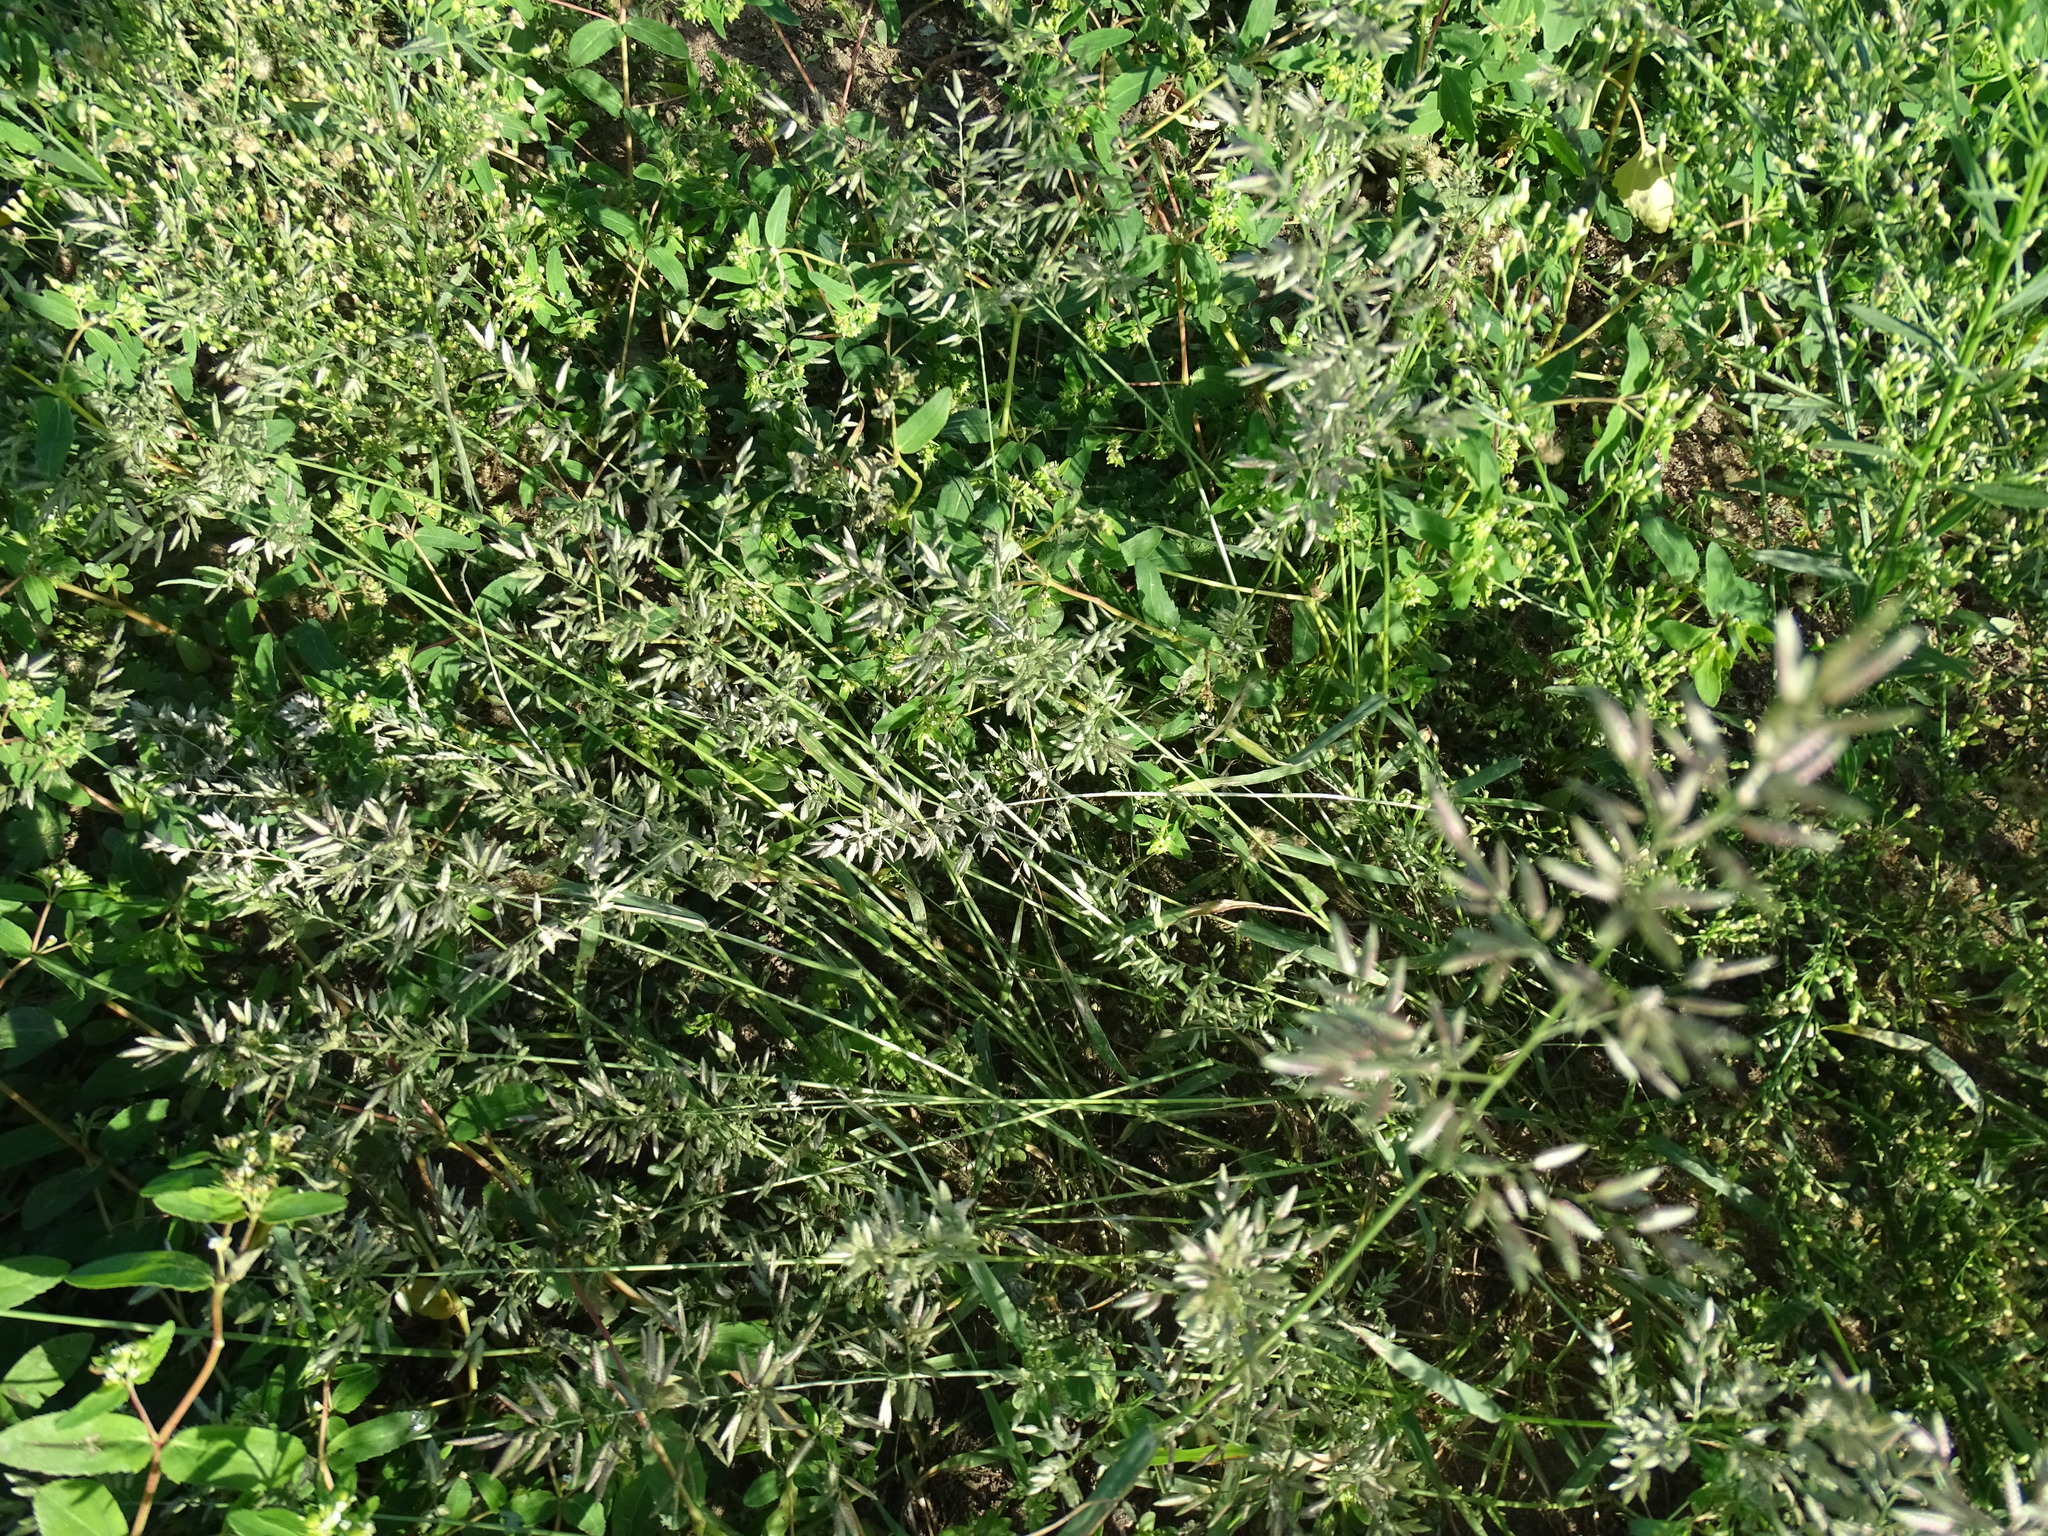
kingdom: Plantae
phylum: Tracheophyta
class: Liliopsida
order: Poales
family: Poaceae
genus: Eragrostis
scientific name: Eragrostis cilianensis
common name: Stinkgrass
